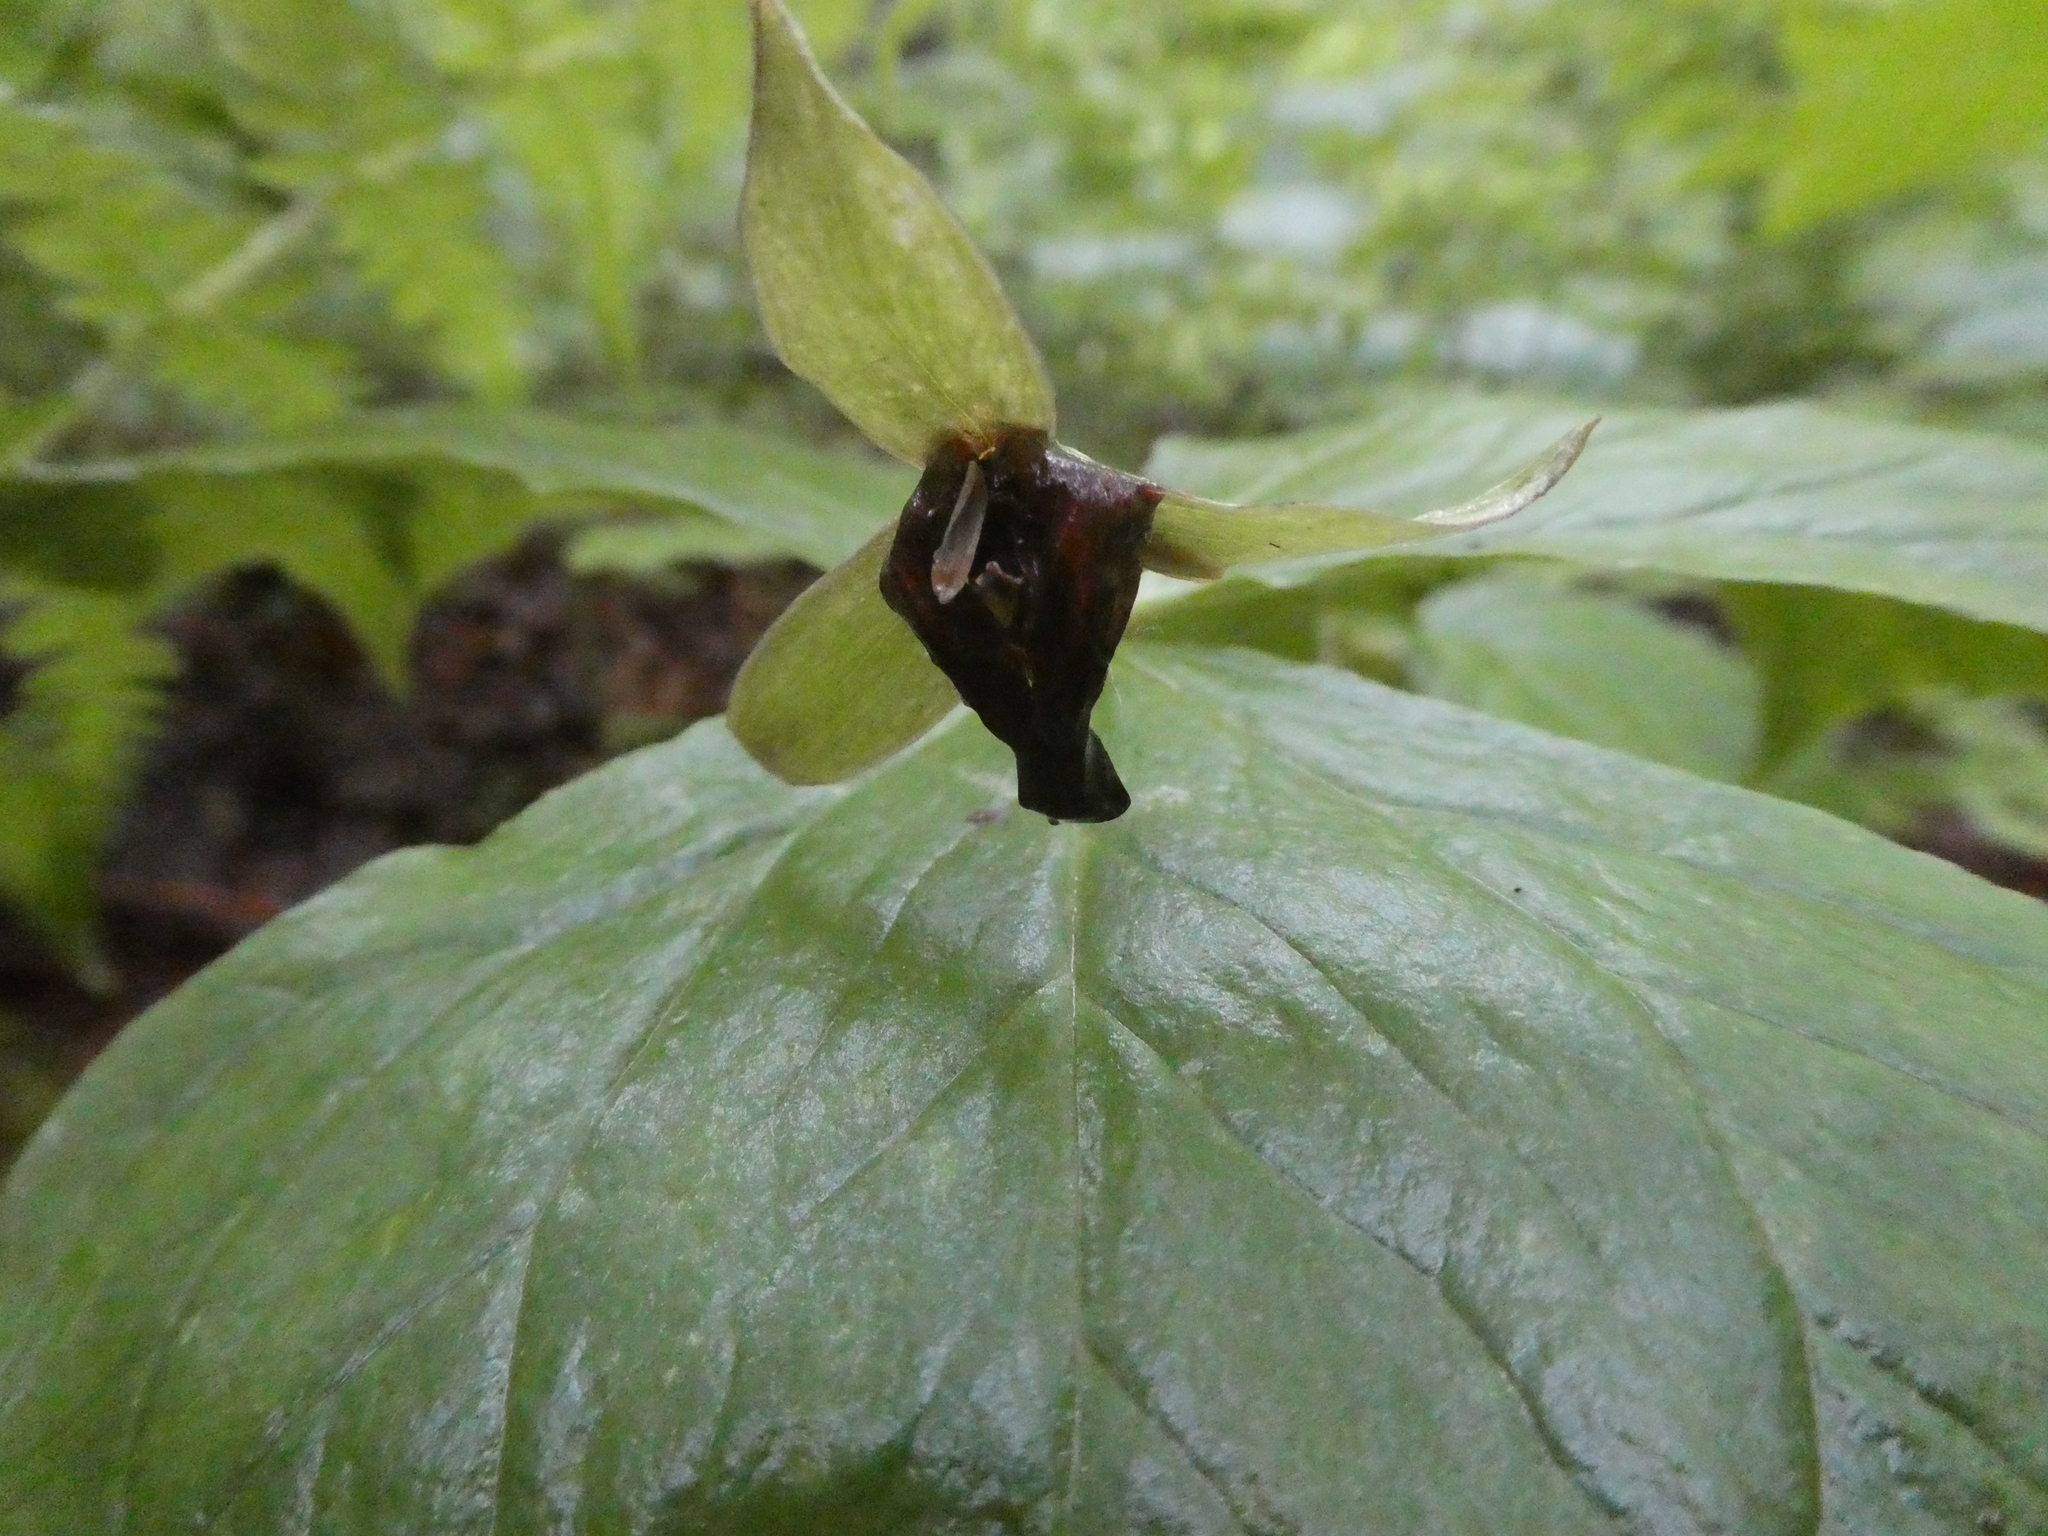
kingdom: Plantae
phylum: Tracheophyta
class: Liliopsida
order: Liliales
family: Melanthiaceae
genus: Trillium
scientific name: Trillium erectum
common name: Purple trillium
